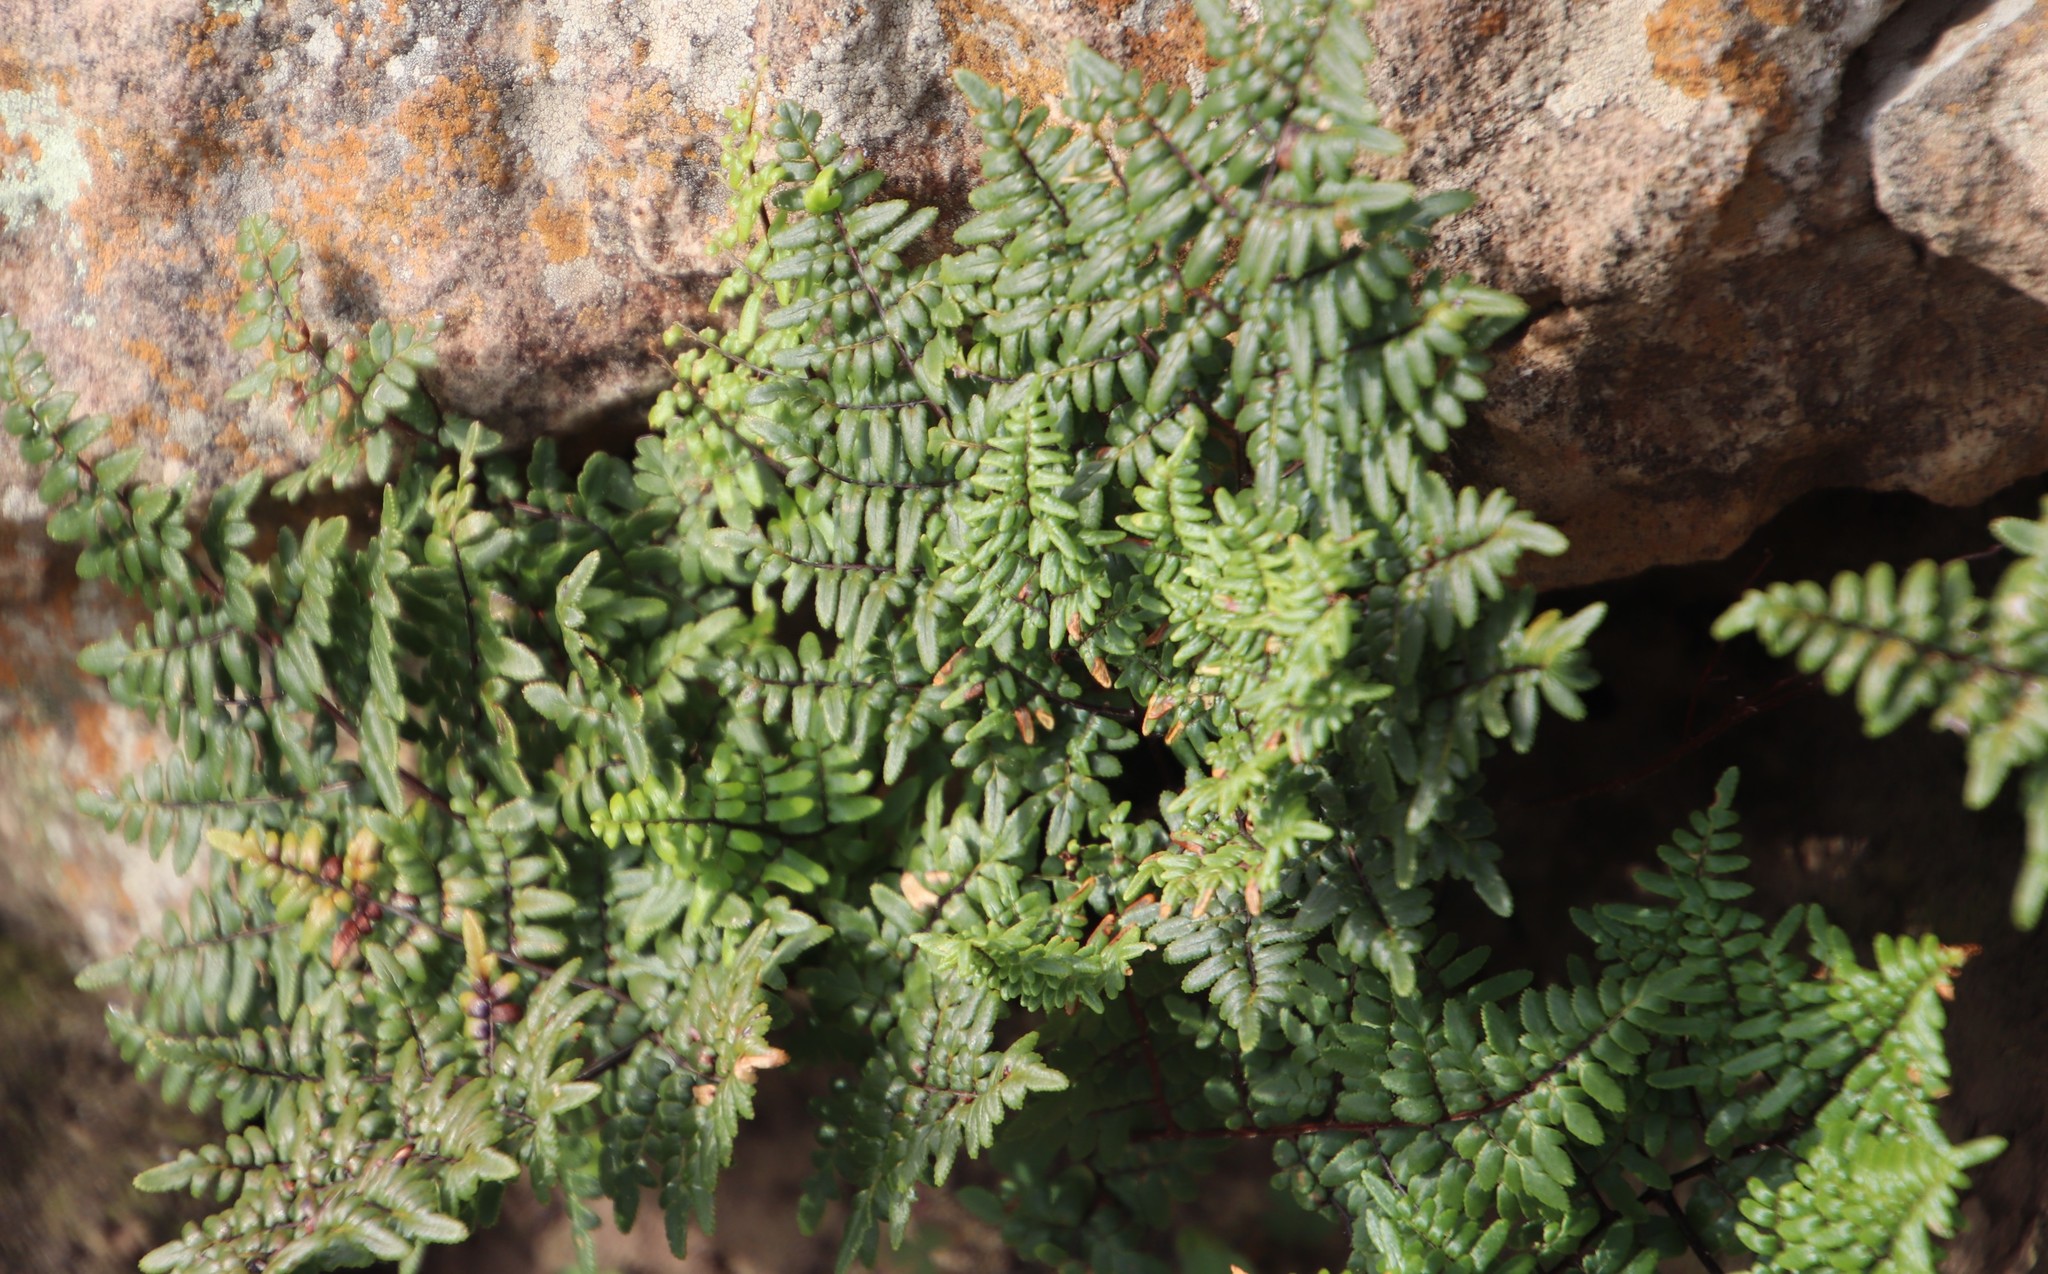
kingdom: Plantae
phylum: Tracheophyta
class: Polypodiopsida
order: Polypodiales
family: Pteridaceae
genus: Cheilanthes
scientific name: Cheilanthes viridis
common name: Green cliffbrake
